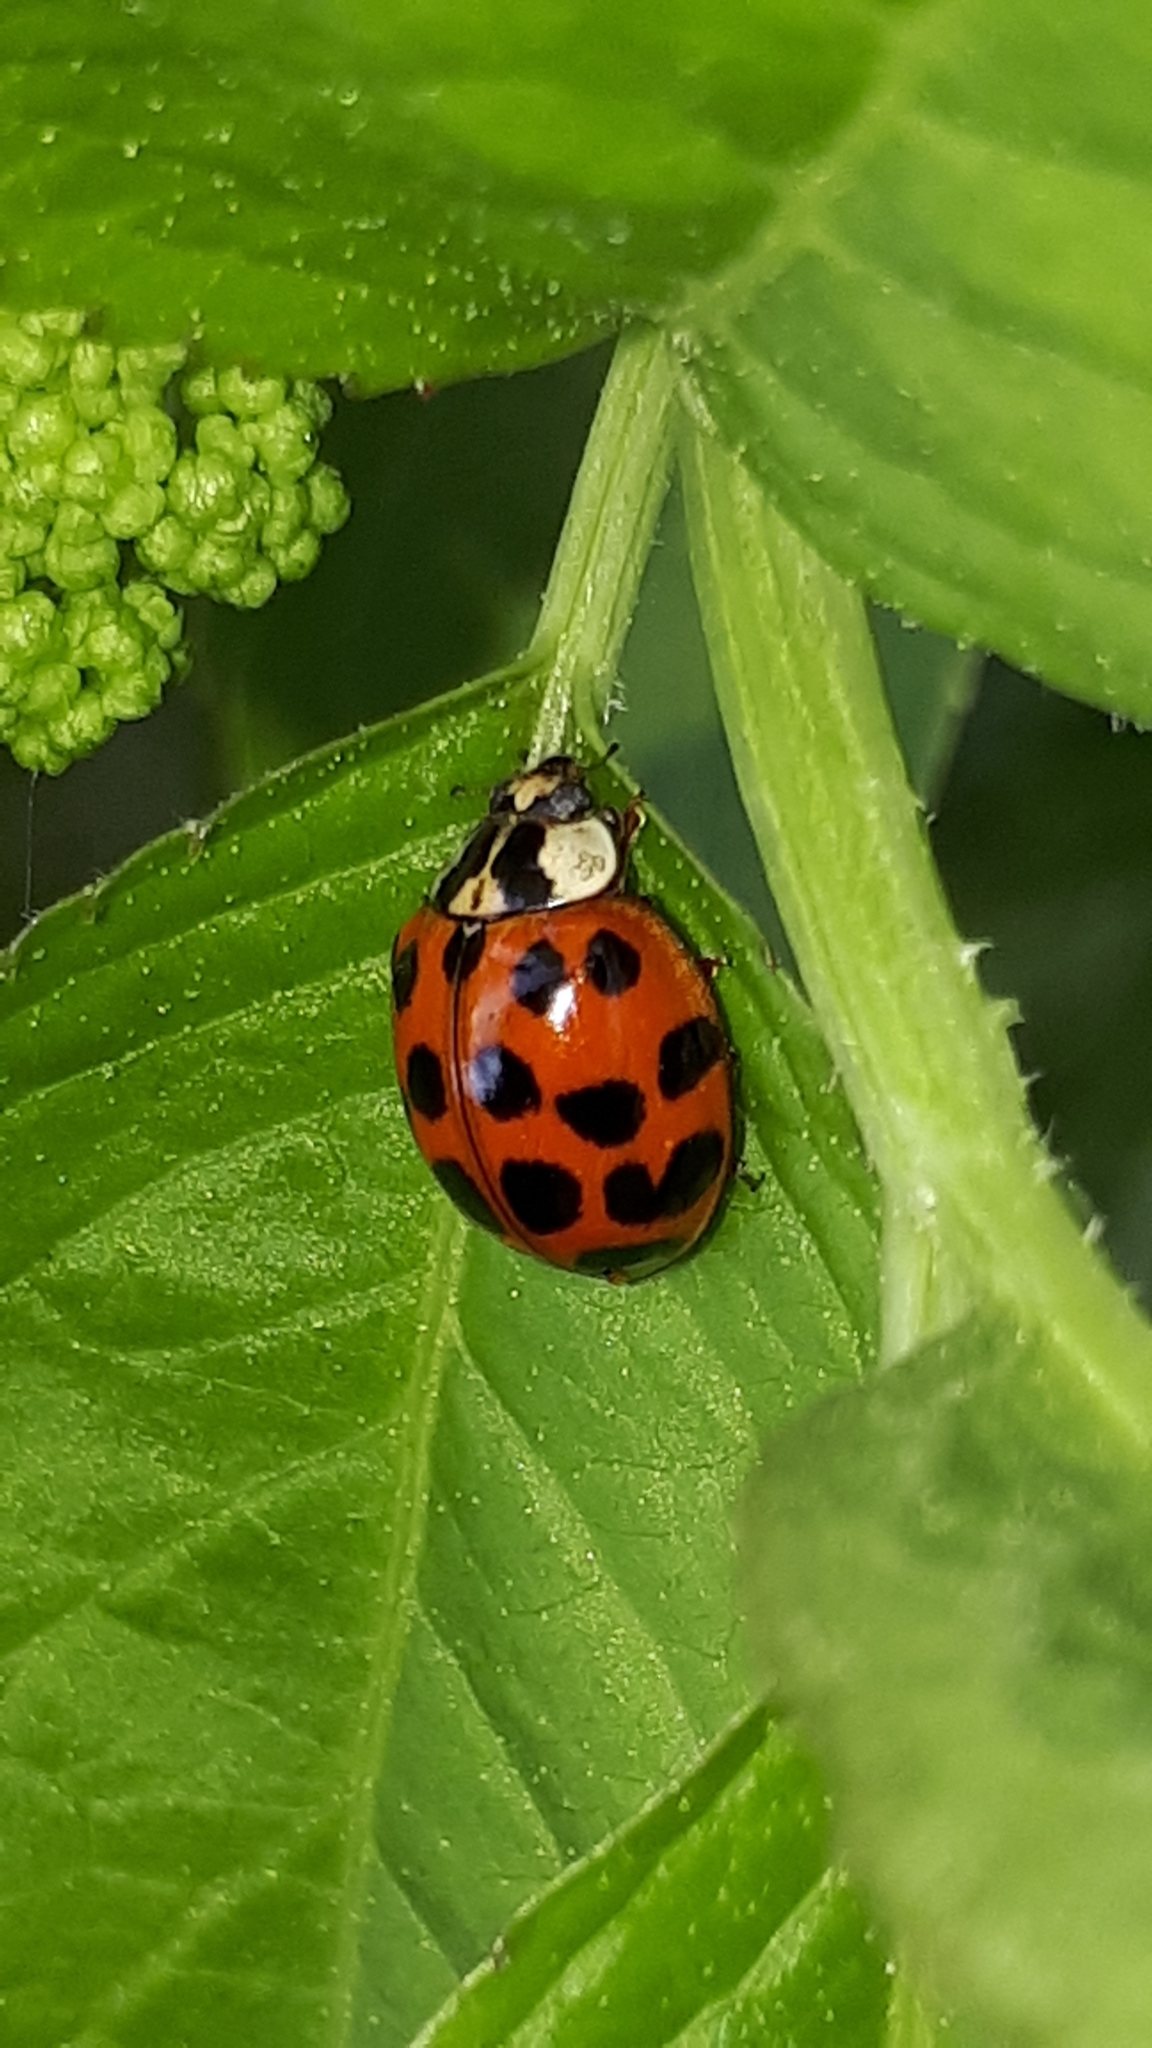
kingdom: Animalia
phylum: Arthropoda
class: Insecta
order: Coleoptera
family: Coccinellidae
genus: Harmonia
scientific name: Harmonia axyridis
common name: Harlequin ladybird
